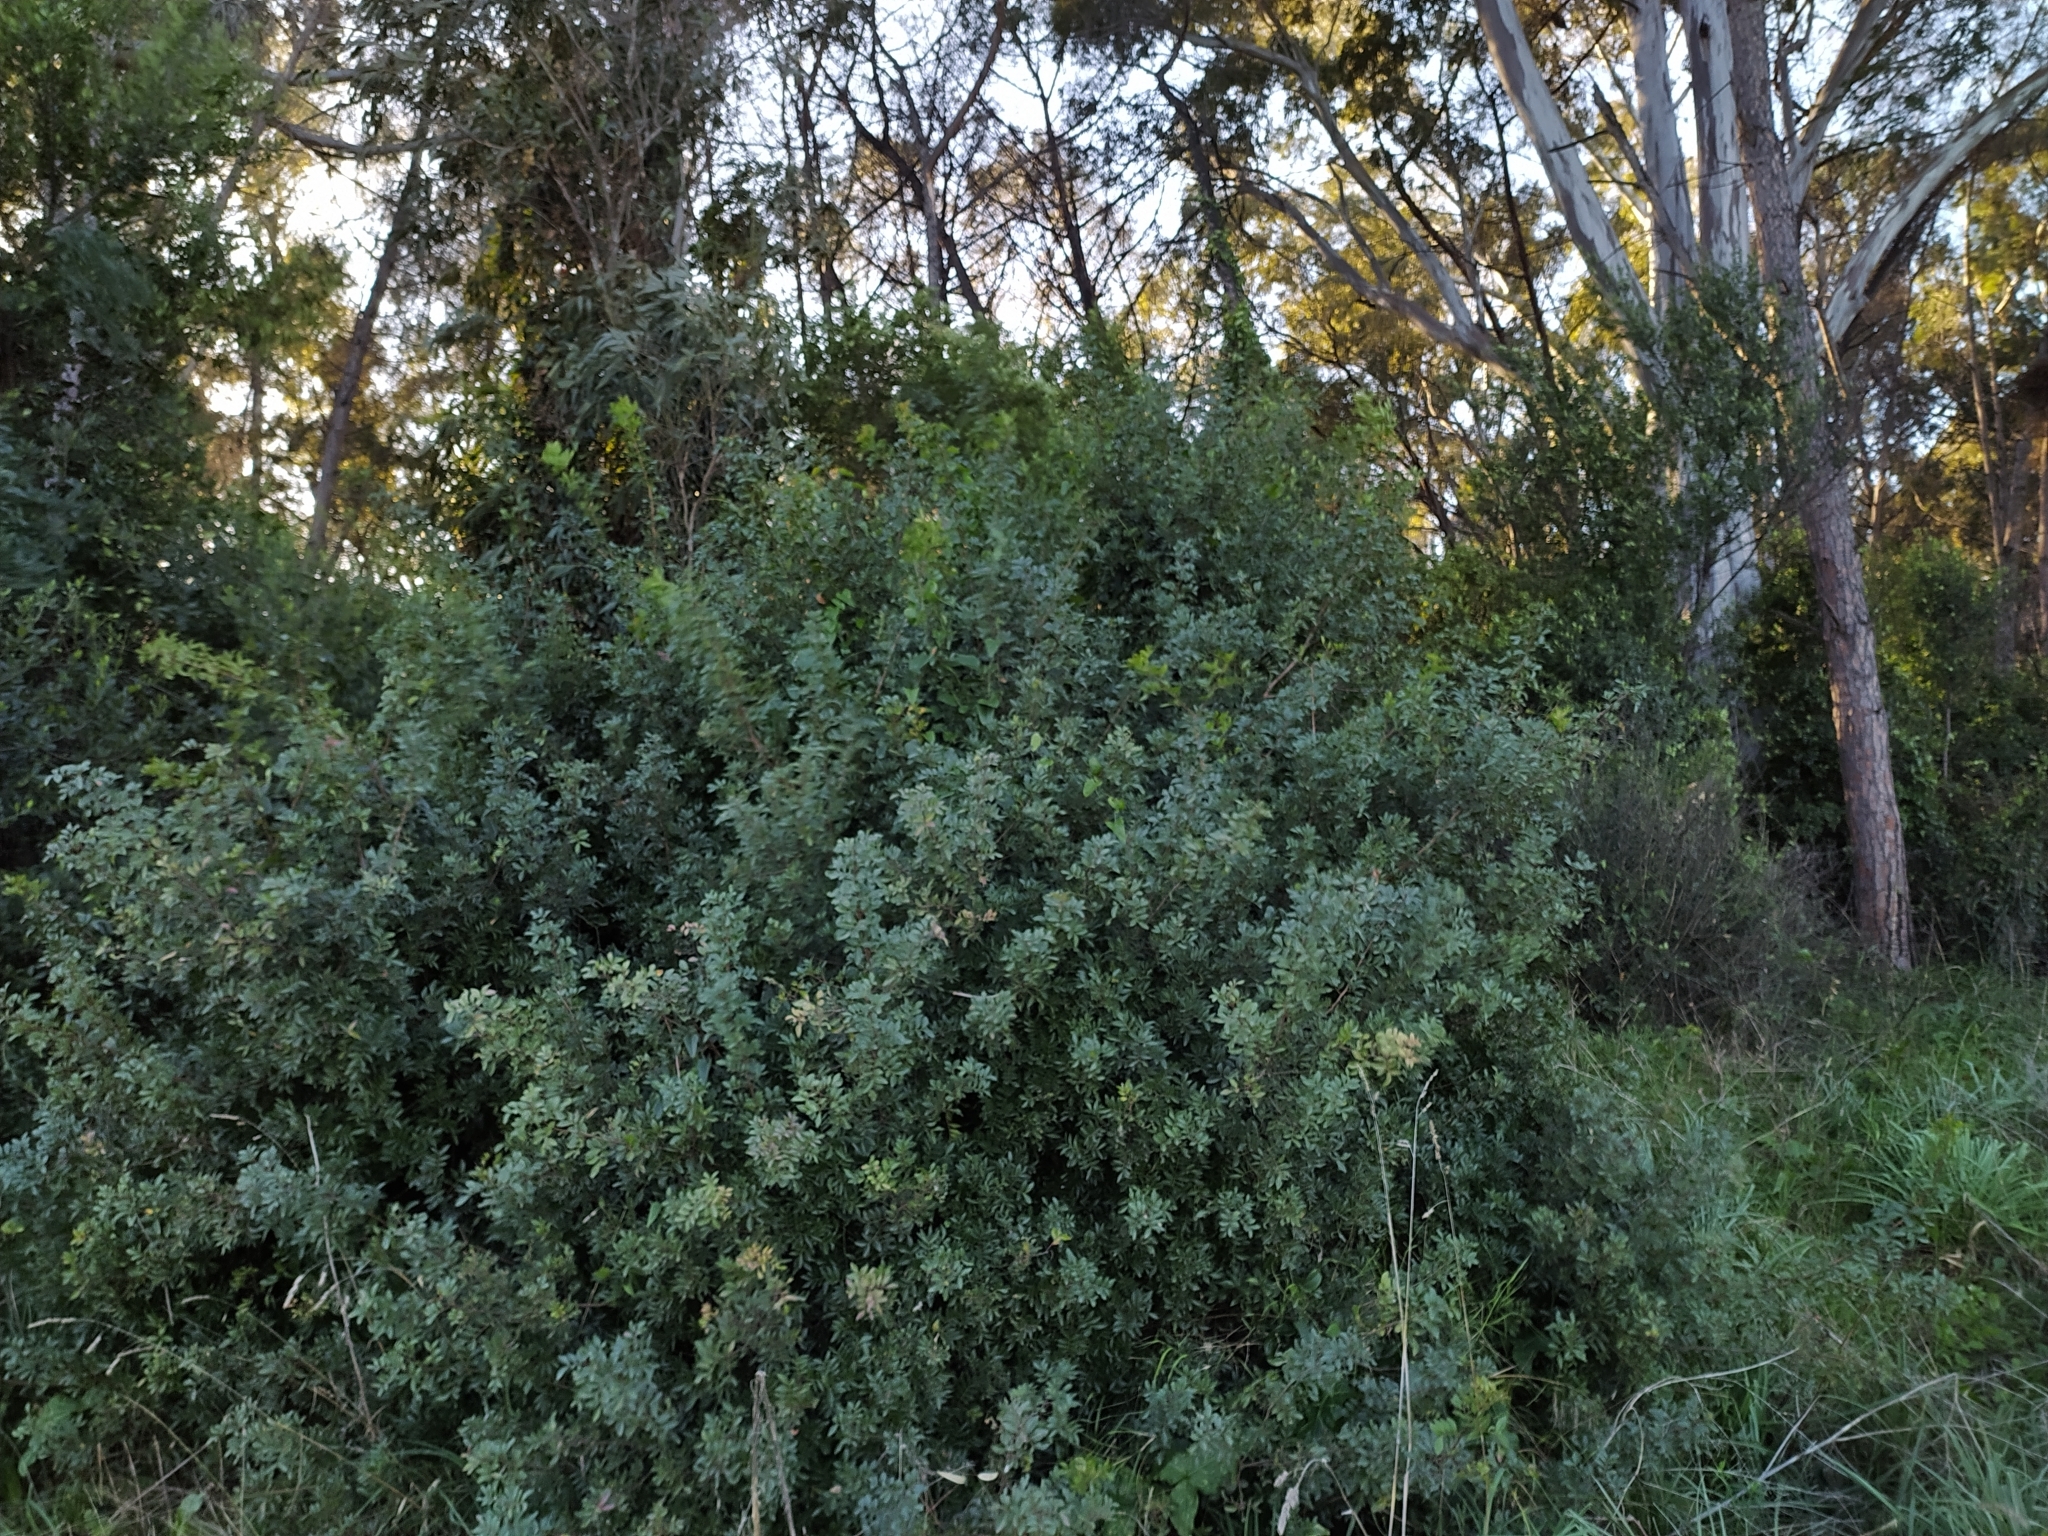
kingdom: Plantae
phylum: Tracheophyta
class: Magnoliopsida
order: Sapindales
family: Anacardiaceae
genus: Pistacia
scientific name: Pistacia lentiscus
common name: Lentisk
